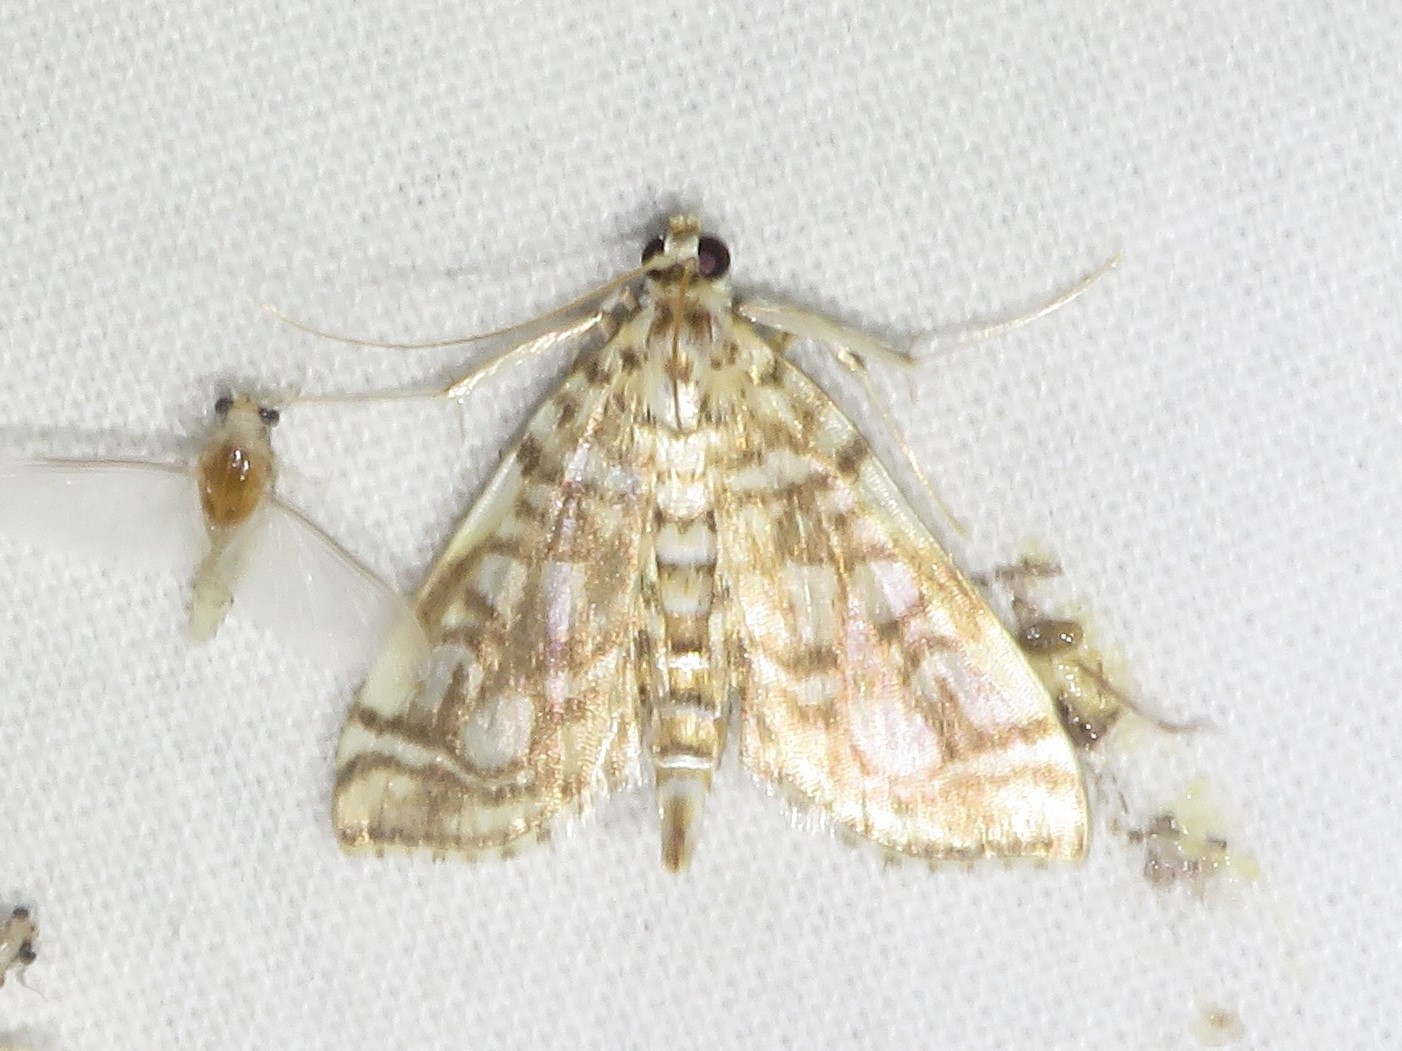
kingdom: Animalia
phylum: Arthropoda
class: Insecta
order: Lepidoptera
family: Crambidae
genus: Lygropia
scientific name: Lygropia rivulalis
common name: Bog lygropia moth
